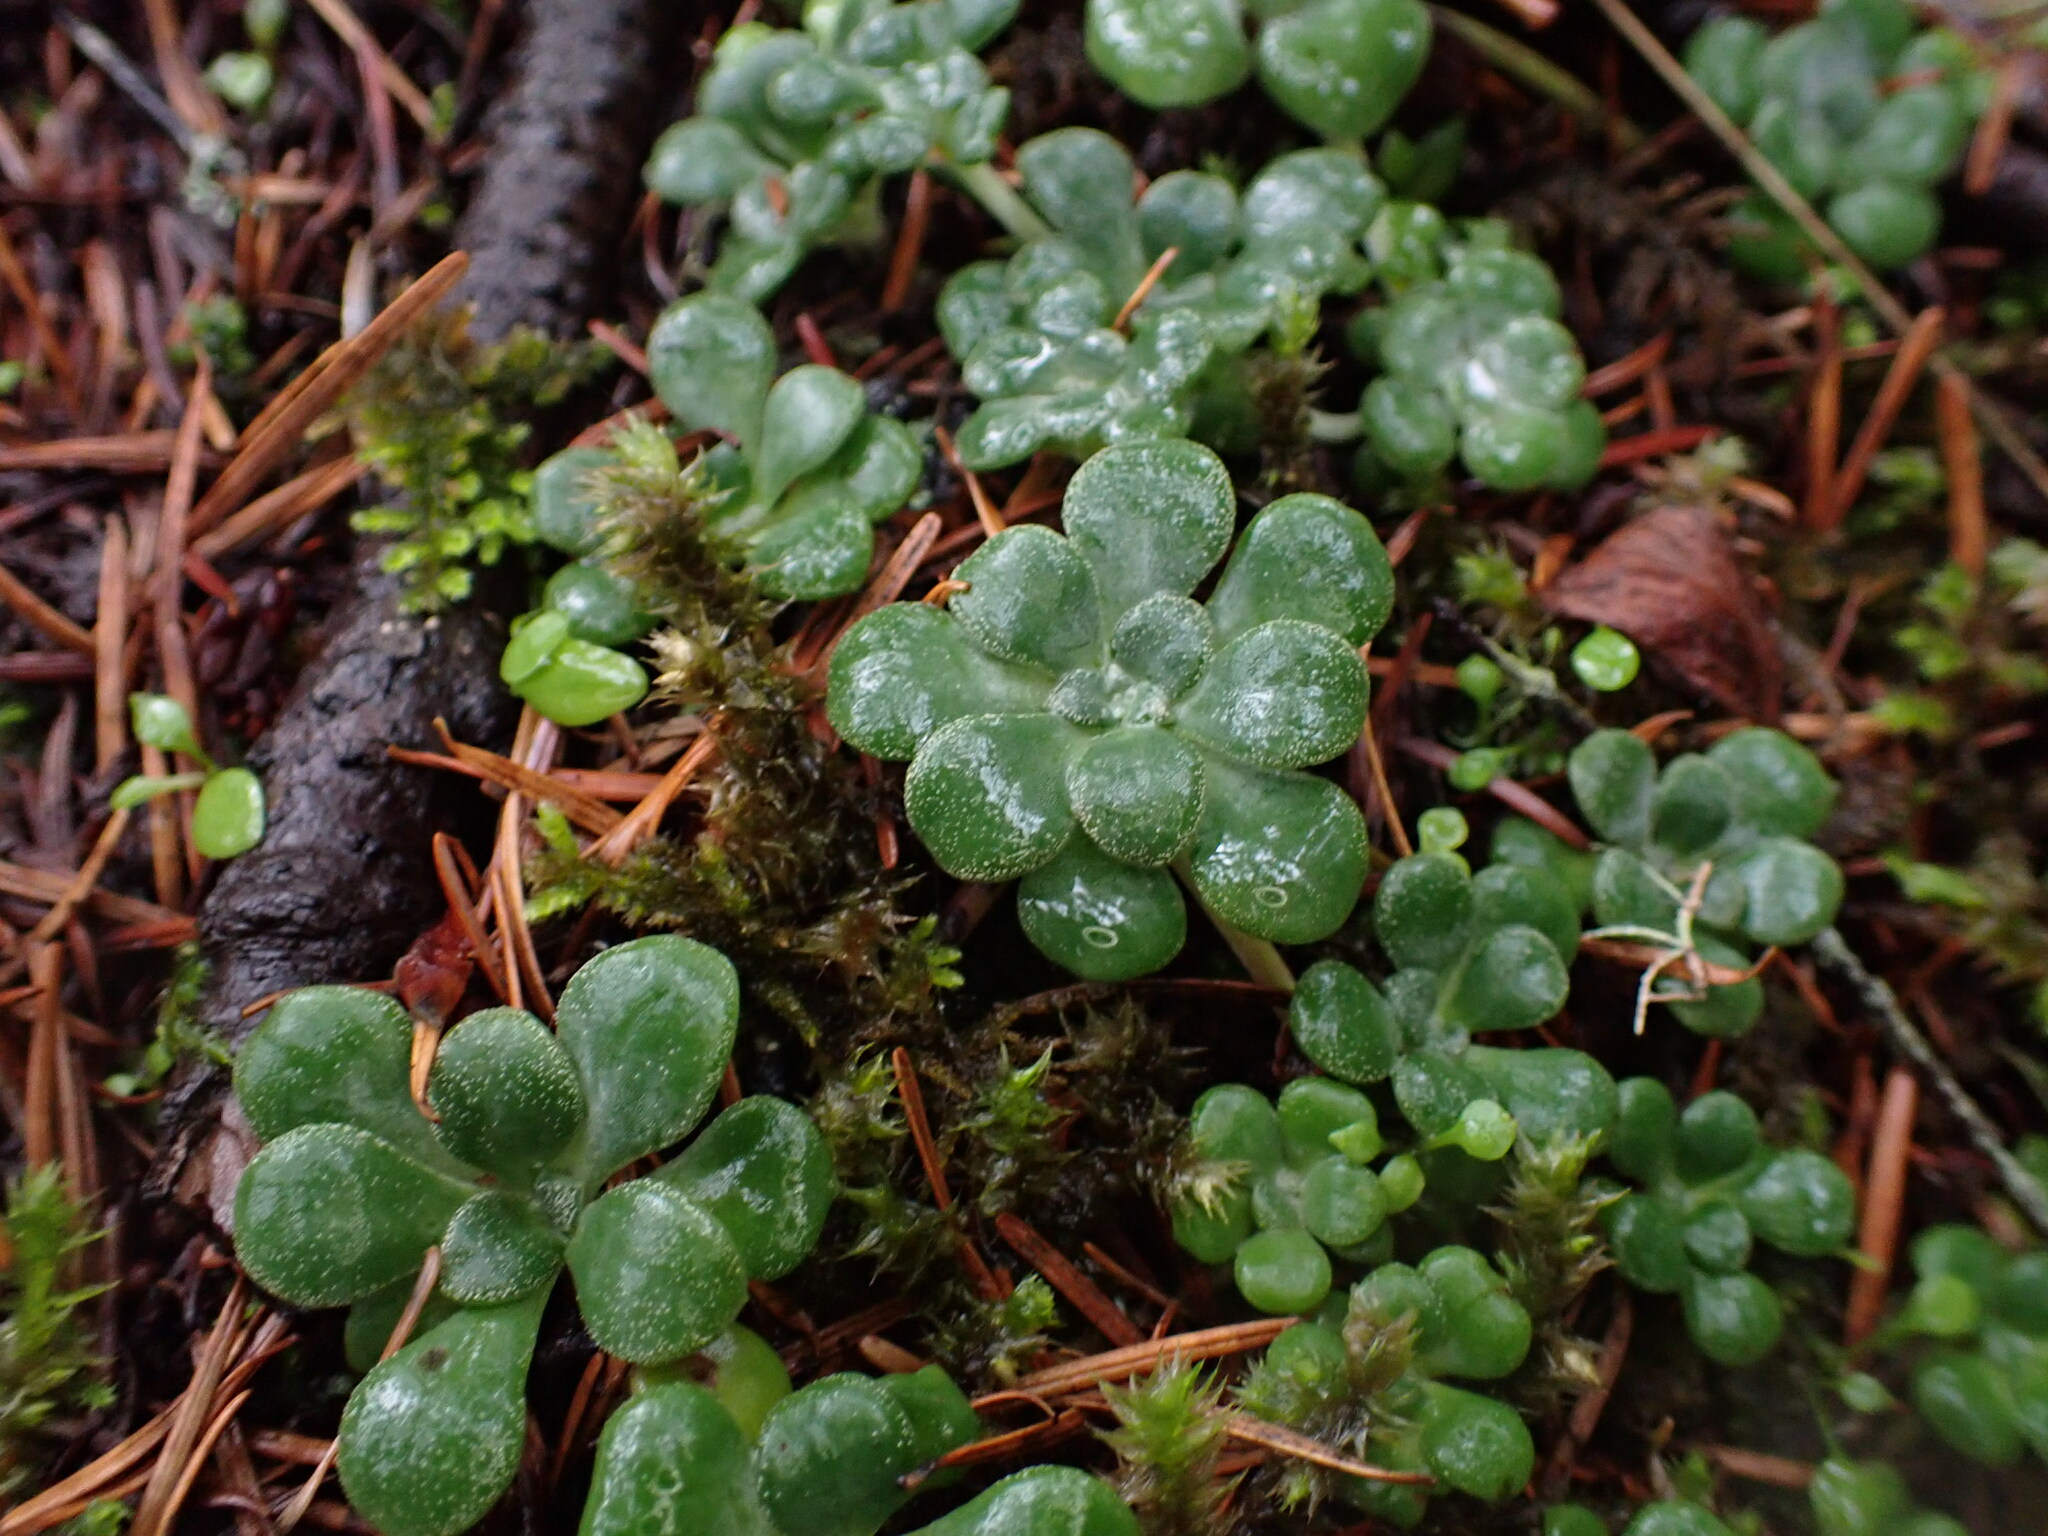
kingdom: Plantae
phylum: Tracheophyta
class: Magnoliopsida
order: Saxifragales
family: Crassulaceae
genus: Sedum
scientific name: Sedum spathulifolium
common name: Colorado stonecrop
